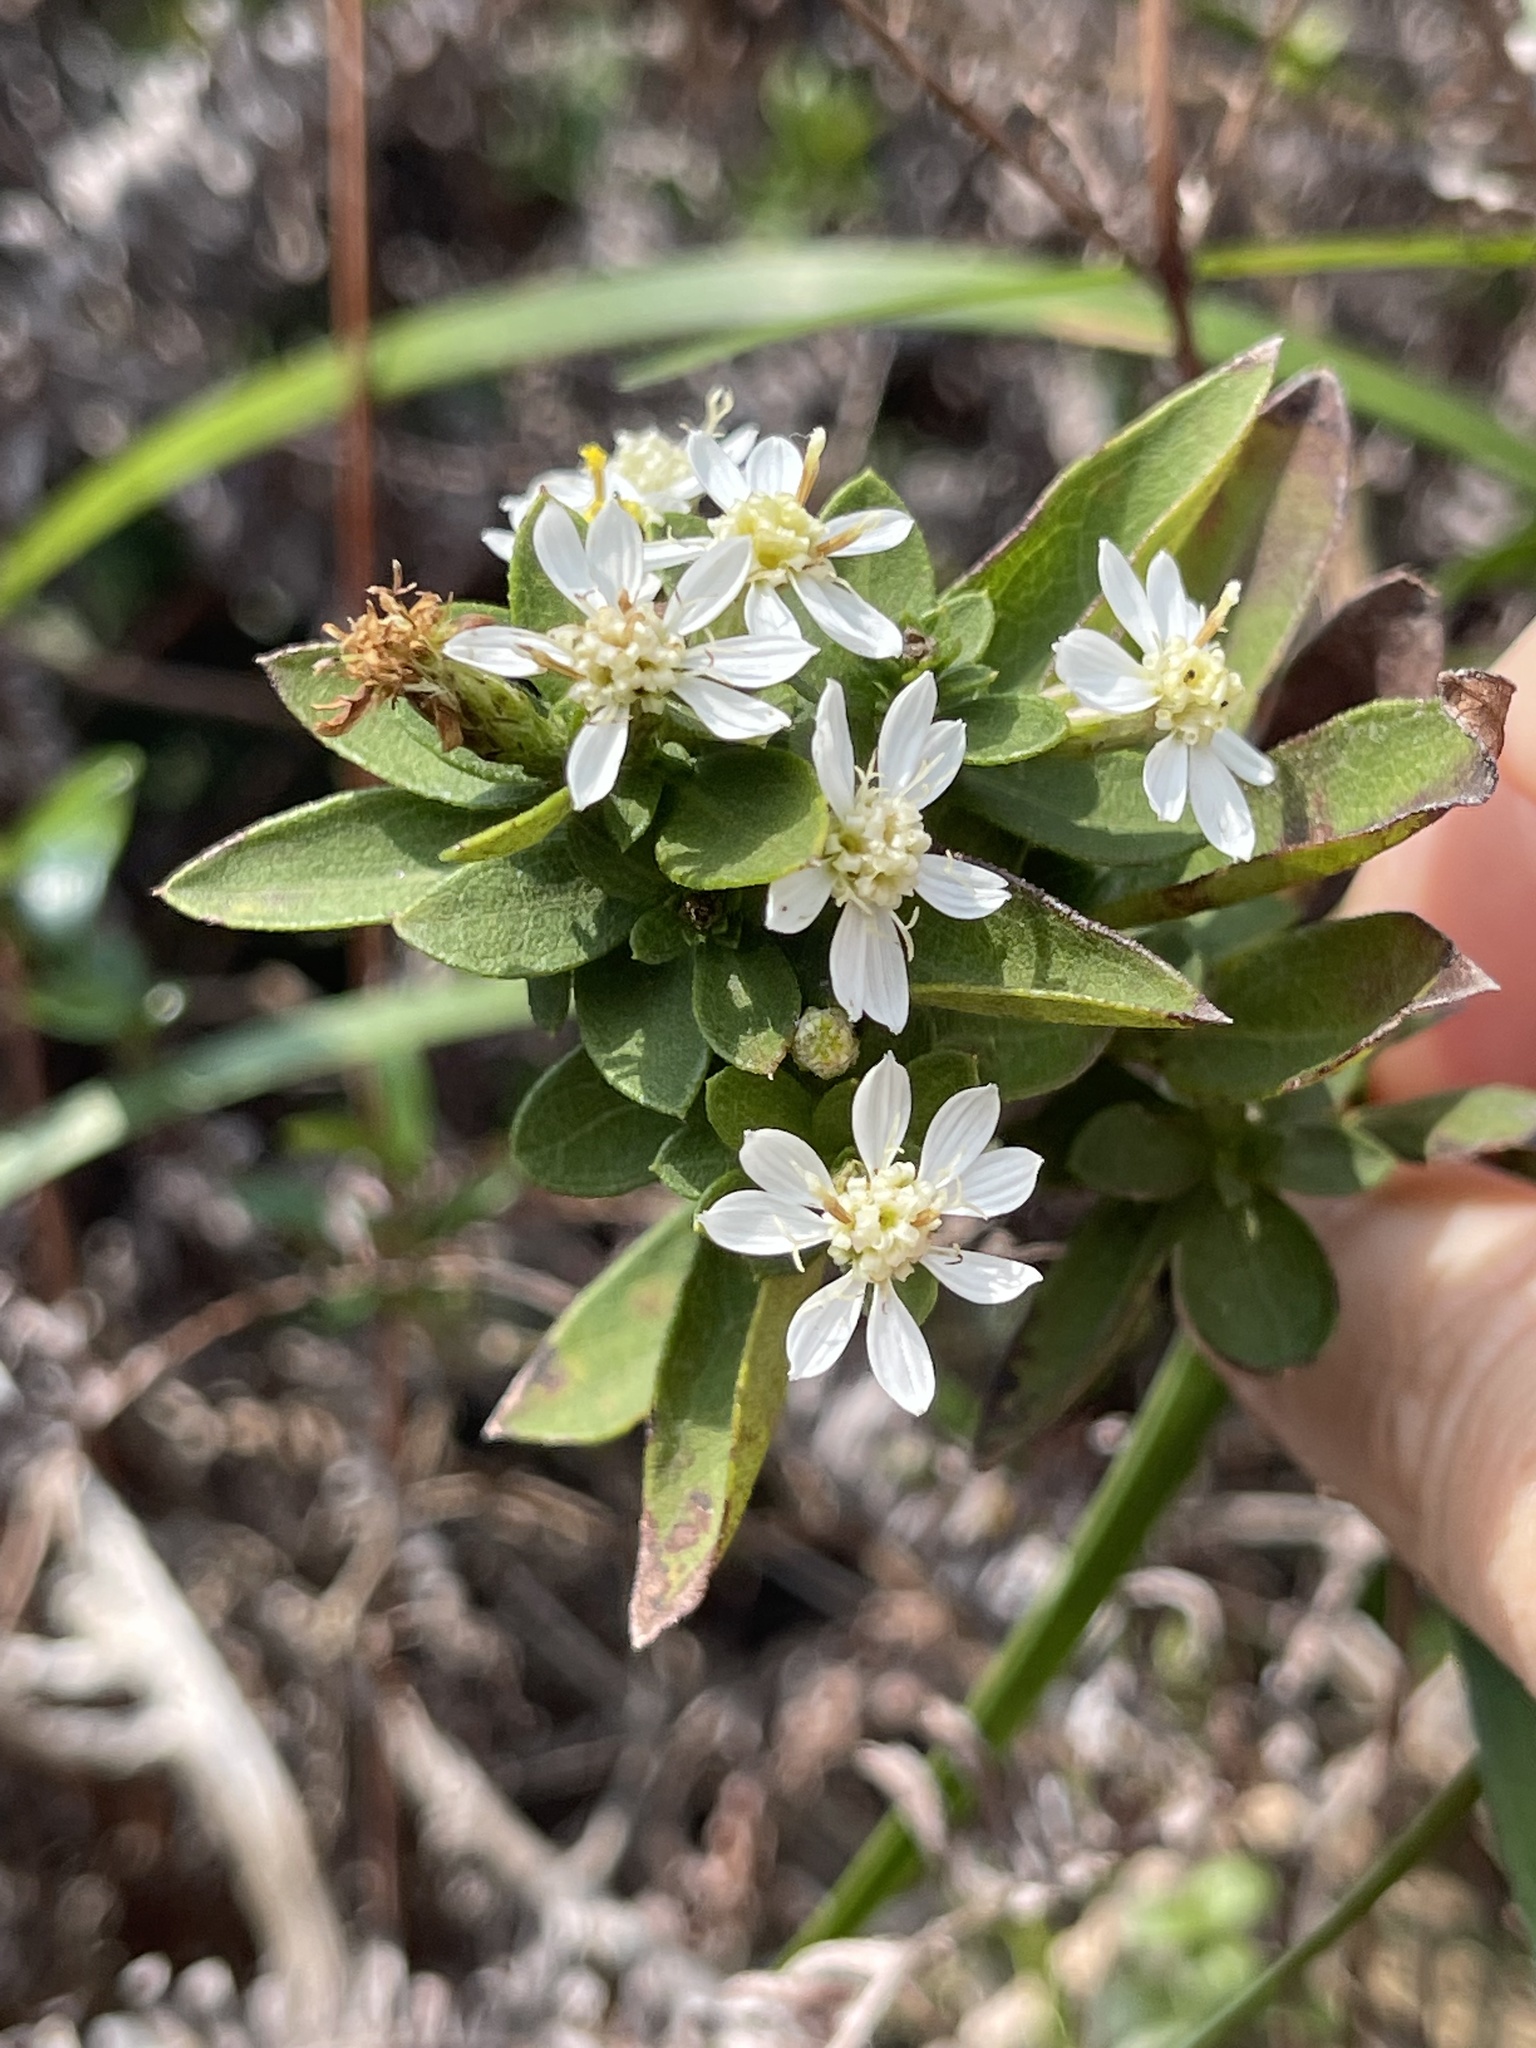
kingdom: Plantae
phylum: Tracheophyta
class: Magnoliopsida
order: Asterales
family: Asteraceae
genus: Aster
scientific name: Aster baccharoides
